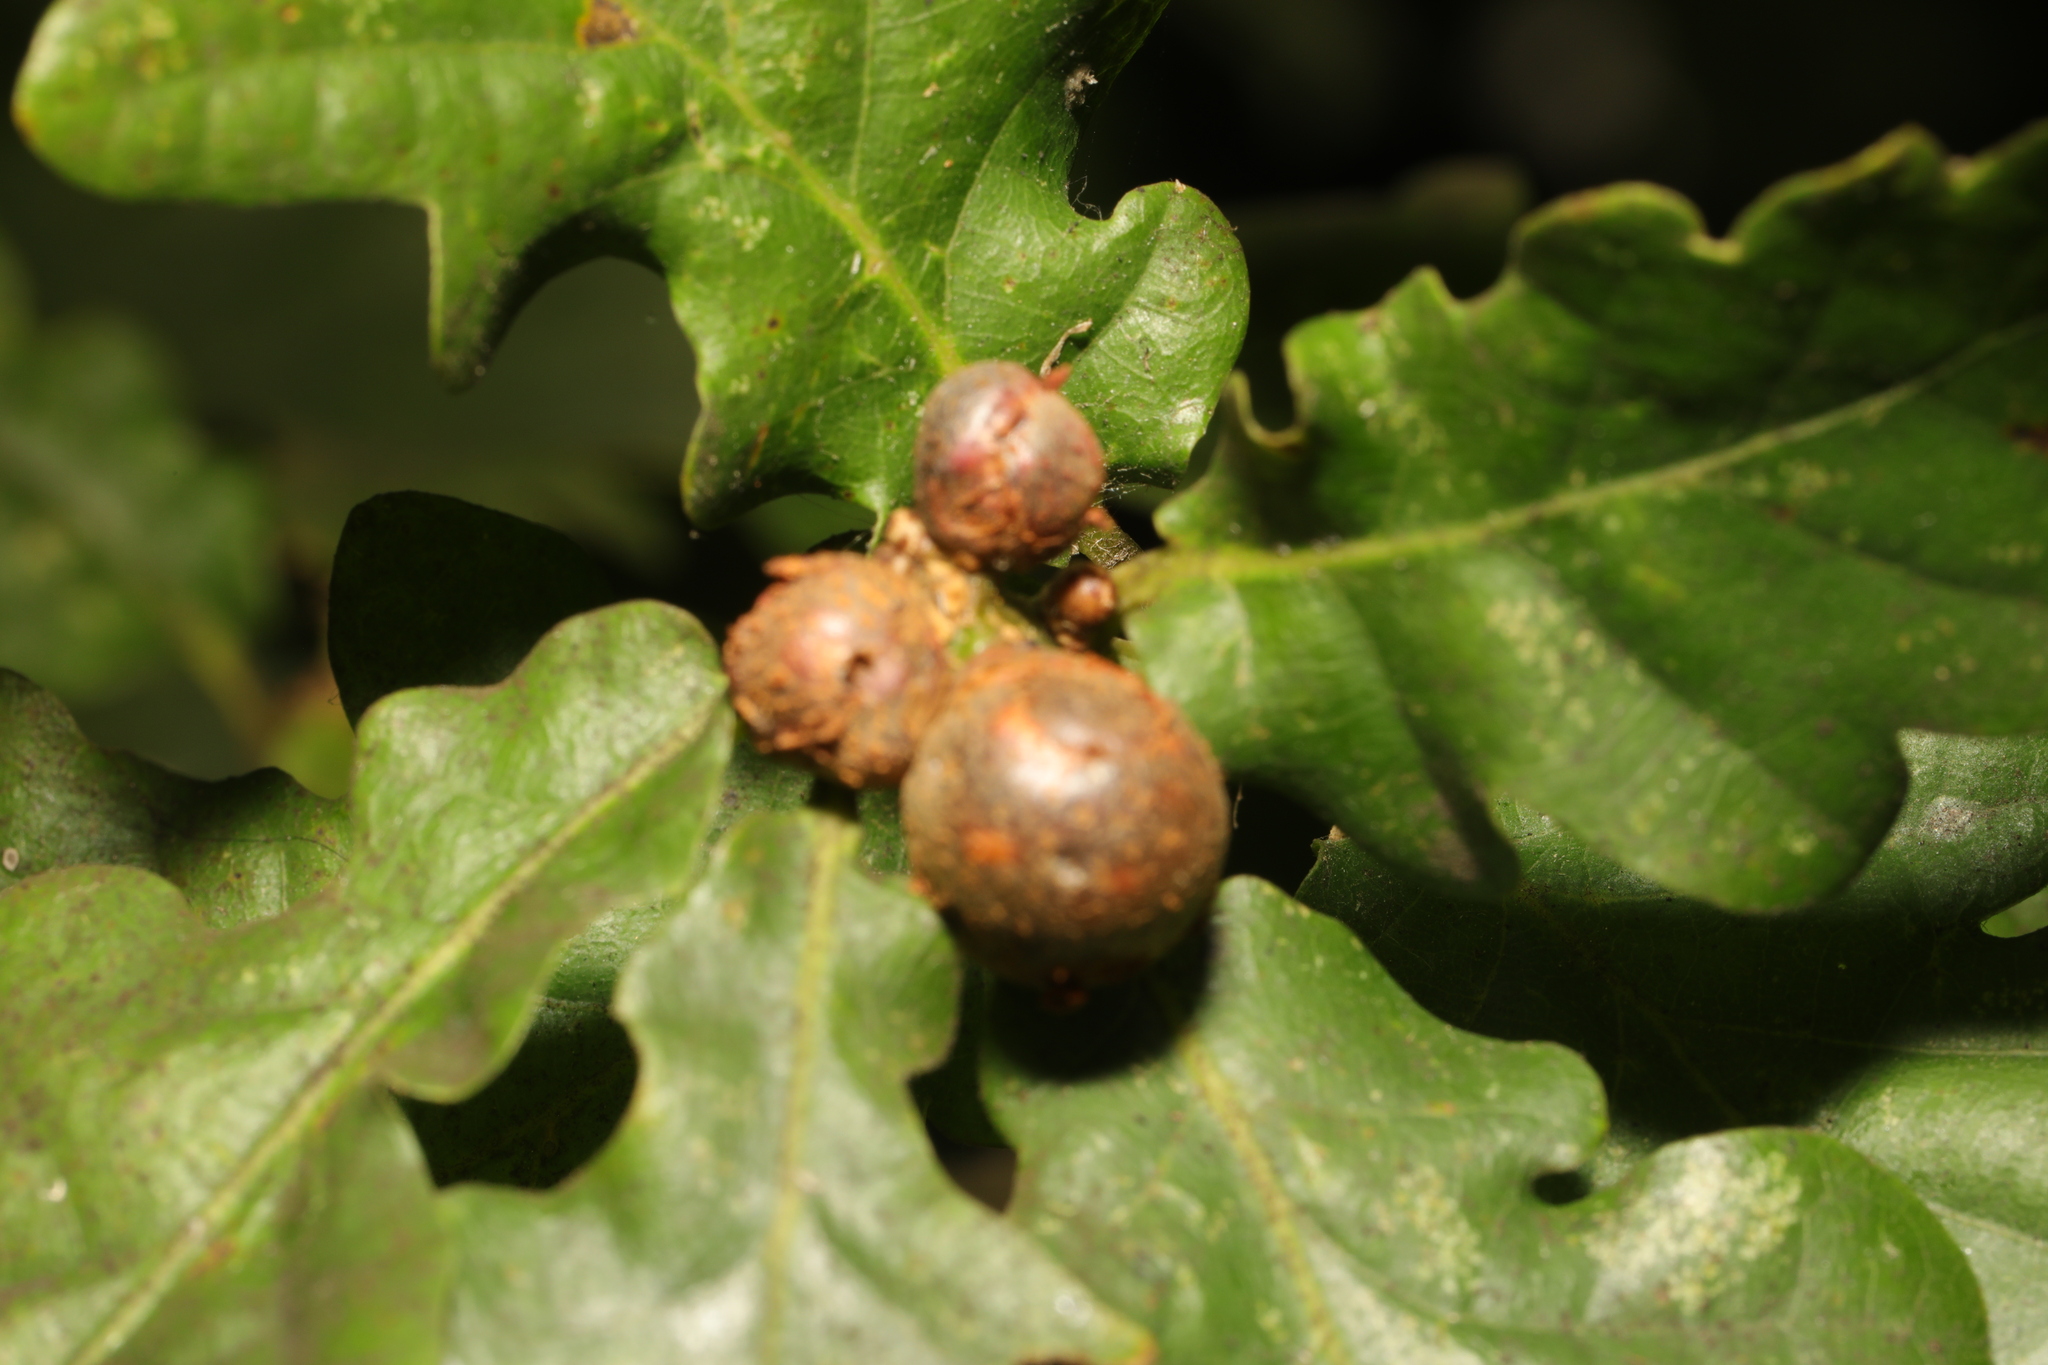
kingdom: Animalia
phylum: Arthropoda
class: Insecta
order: Hymenoptera
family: Cynipidae
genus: Andricus
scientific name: Andricus lignicolus
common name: Cola-nut gall
